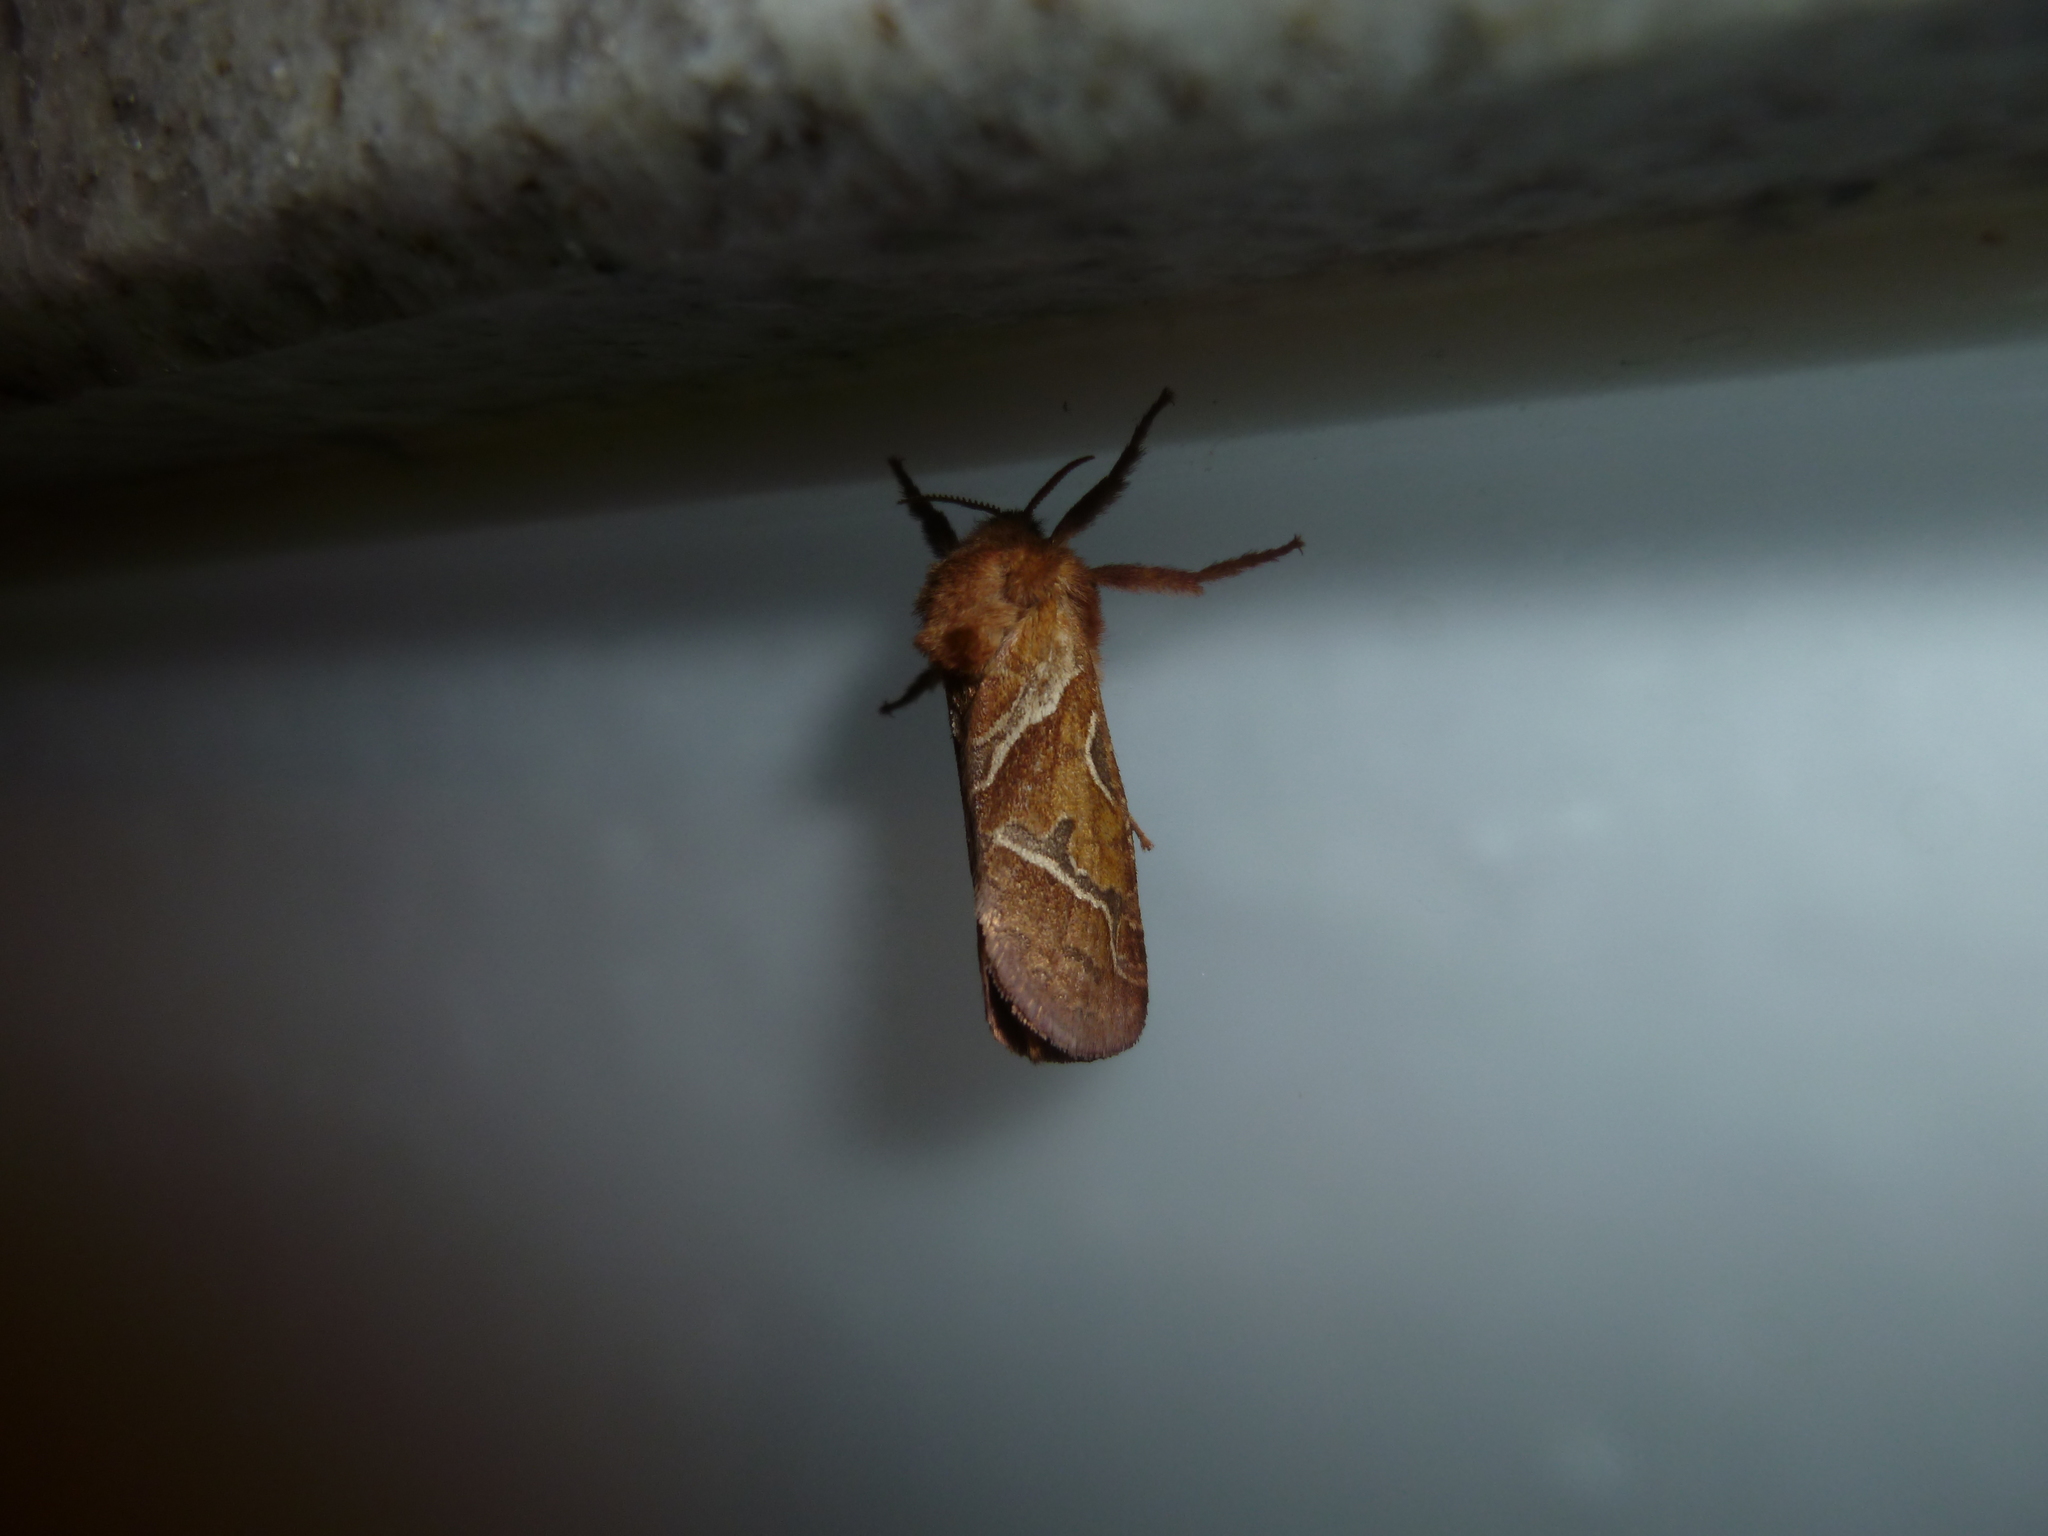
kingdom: Animalia
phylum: Arthropoda
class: Insecta
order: Lepidoptera
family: Hepialidae
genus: Triodia
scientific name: Triodia sylvina
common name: Orange swift
